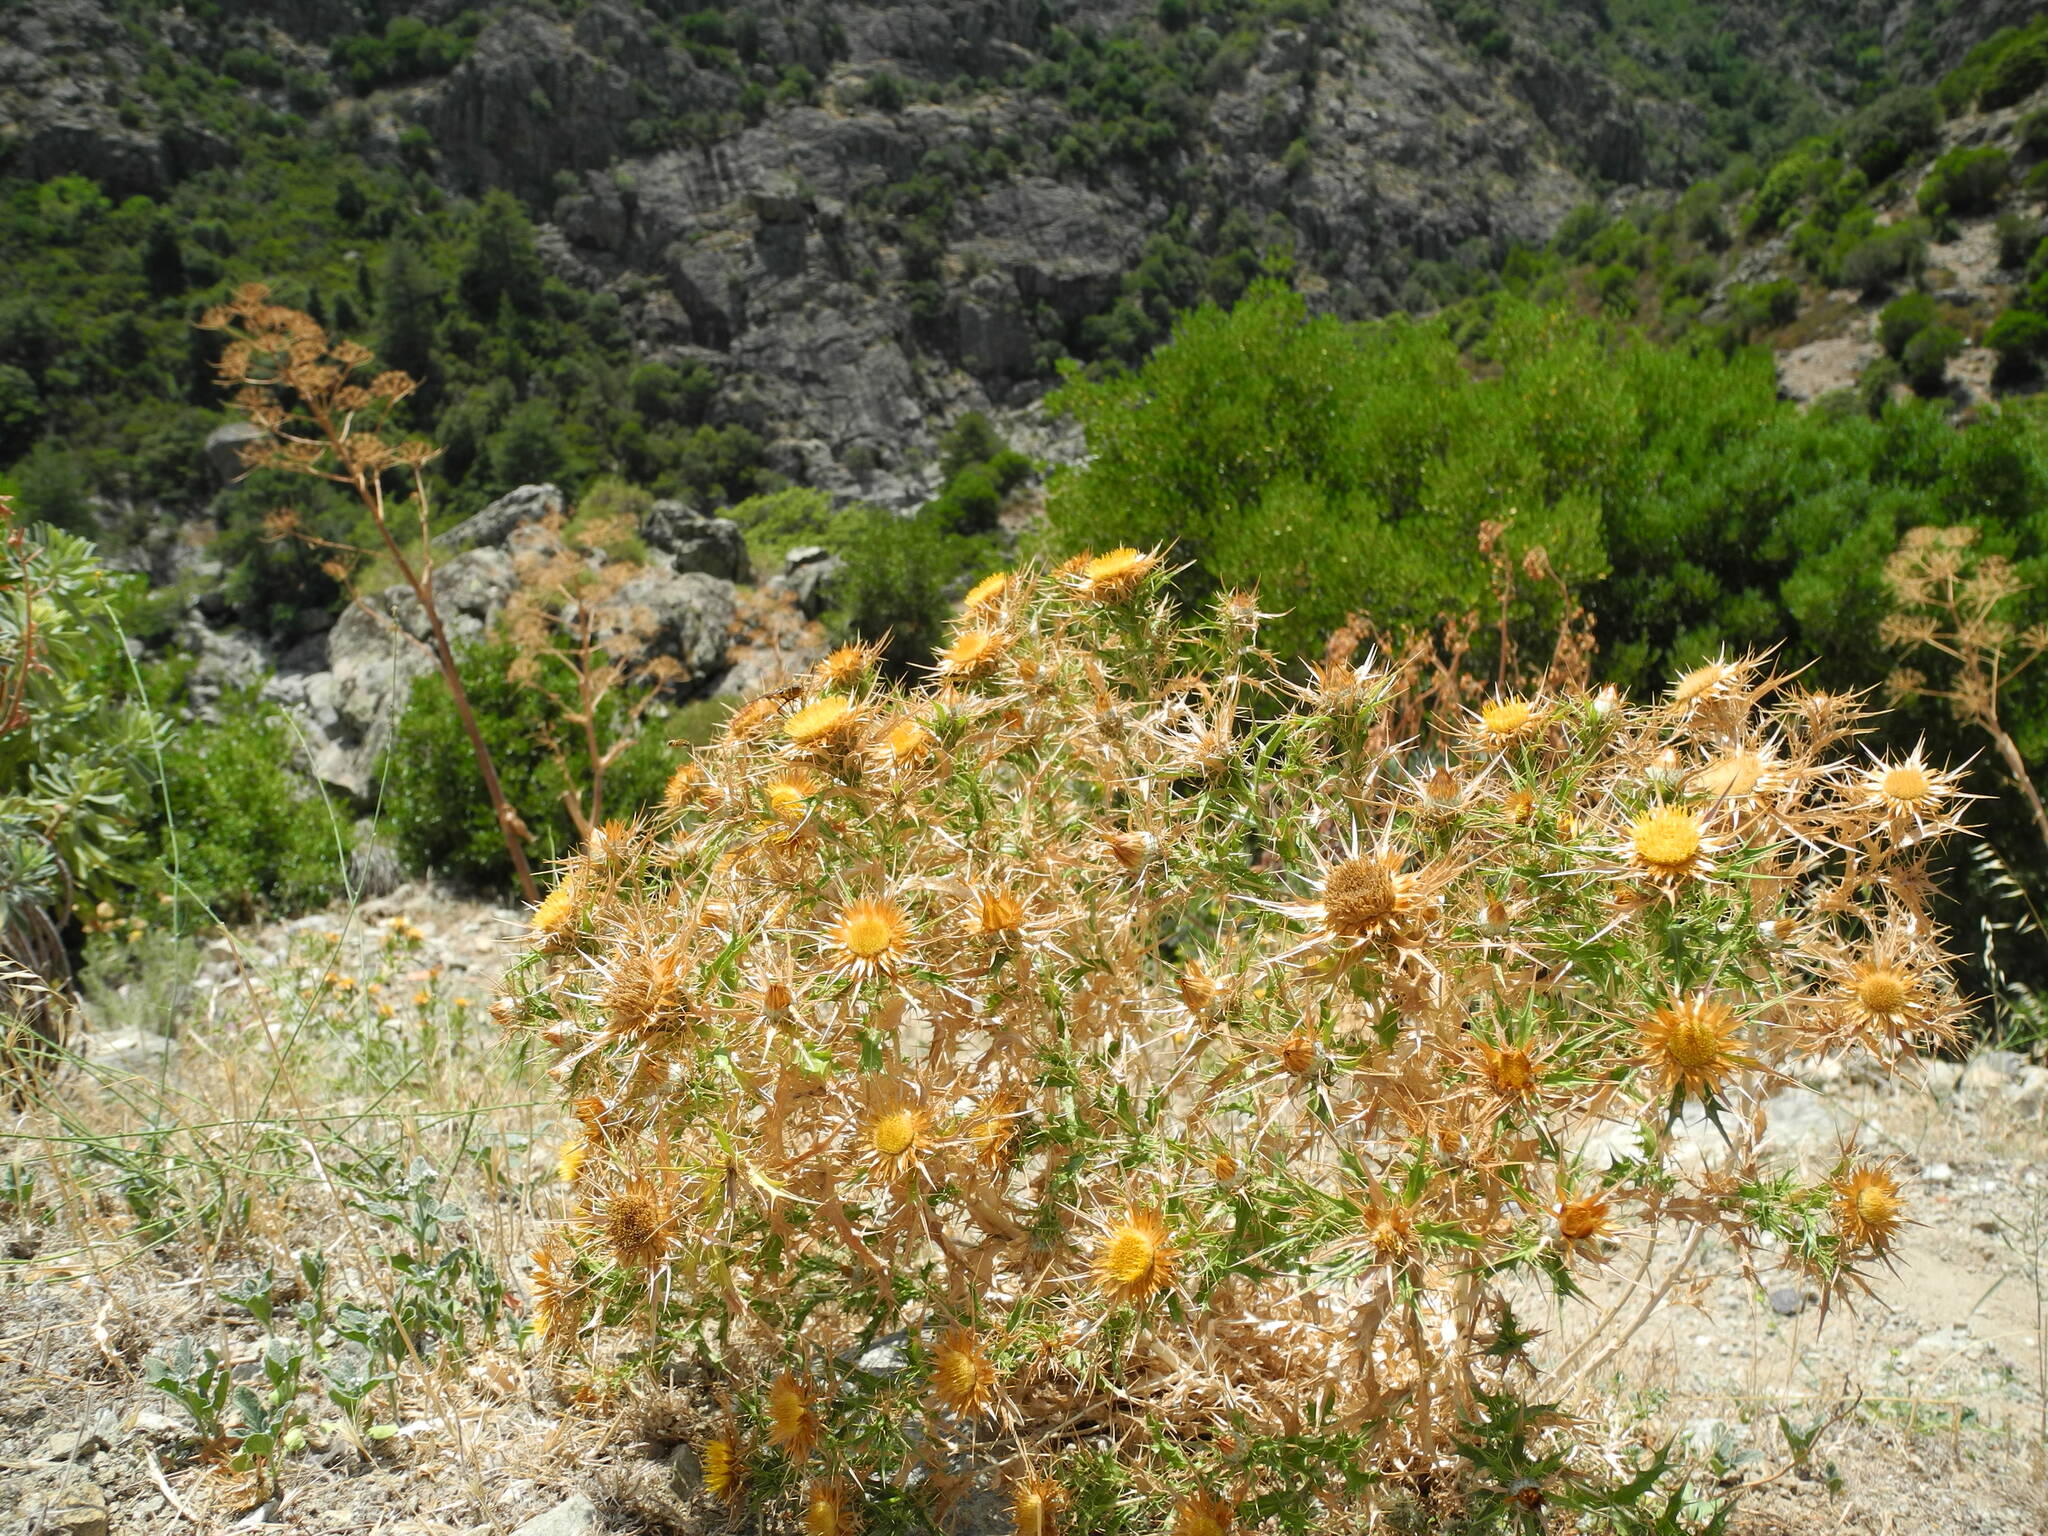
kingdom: Plantae
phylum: Tracheophyta
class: Magnoliopsida
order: Asterales
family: Asteraceae
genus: Carlina
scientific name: Carlina corymbosa
